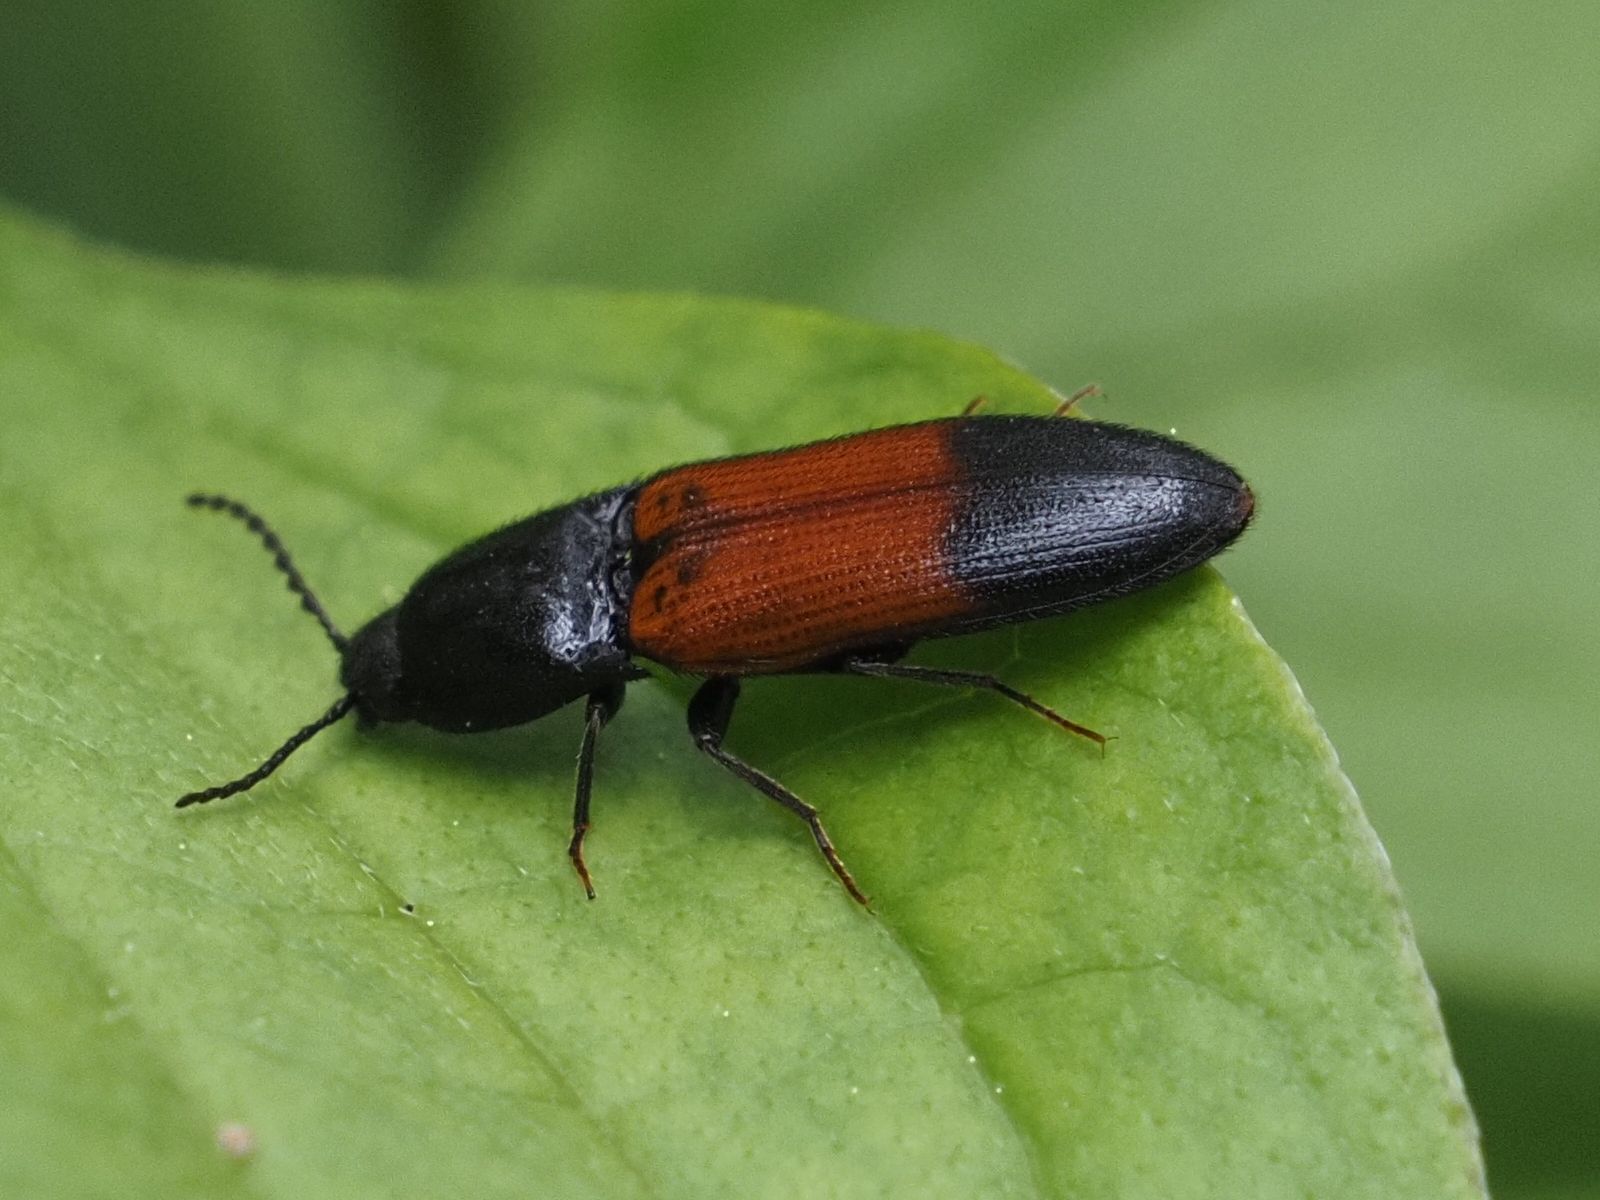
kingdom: Animalia
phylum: Arthropoda
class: Insecta
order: Coleoptera
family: Elateridae
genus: Ampedus
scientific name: Ampedus balteatus
